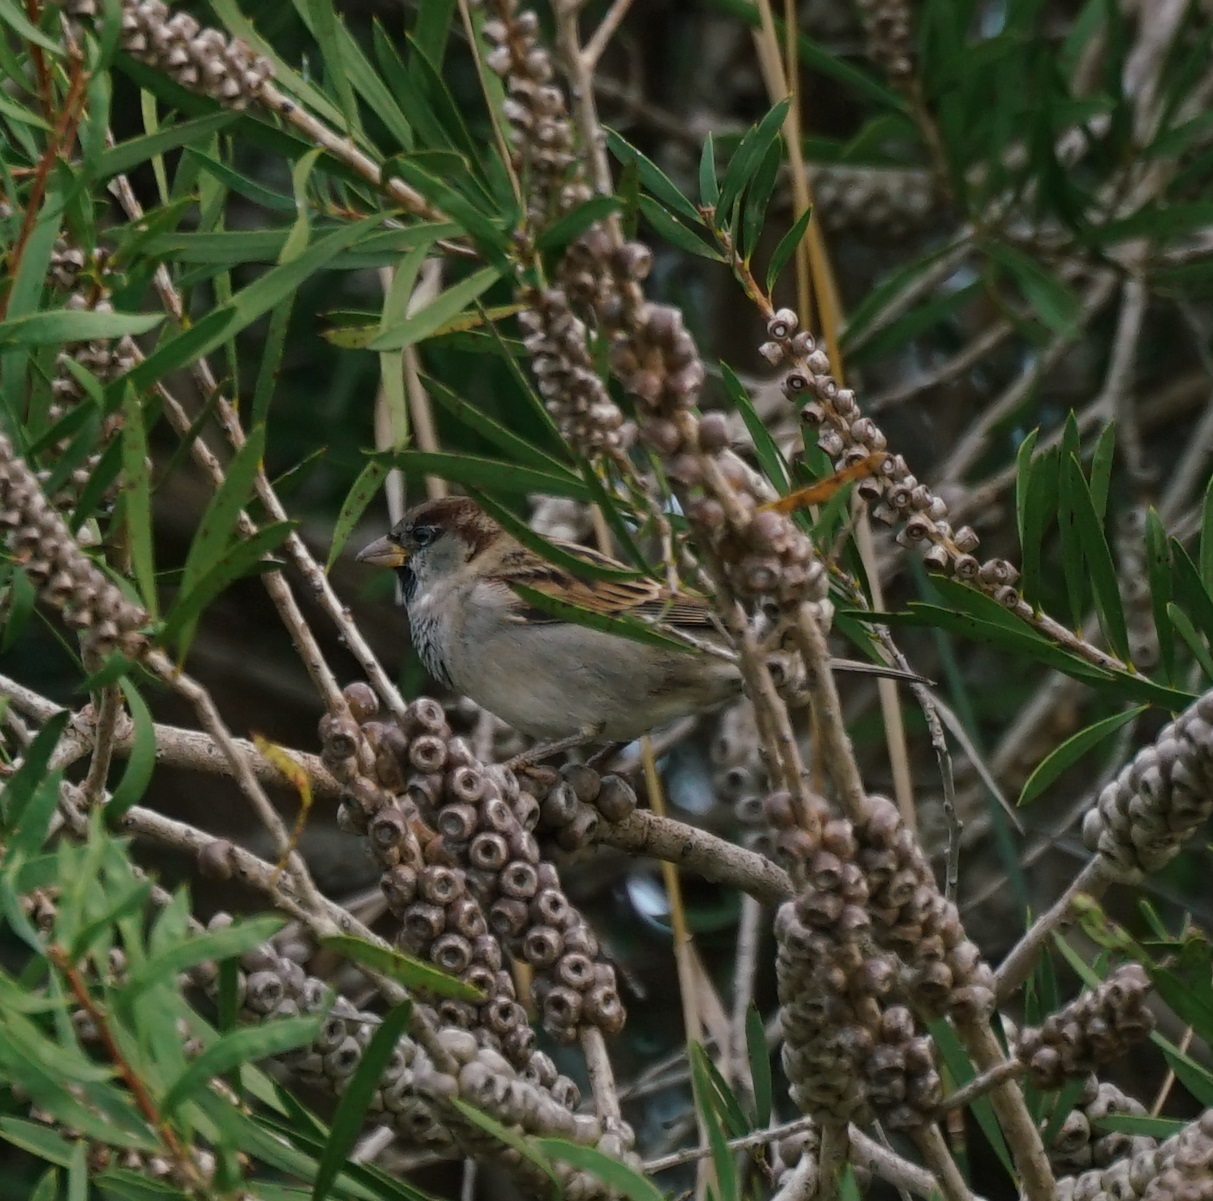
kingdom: Animalia
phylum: Chordata
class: Aves
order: Passeriformes
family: Passeridae
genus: Passer
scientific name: Passer domesticus
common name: House sparrow
